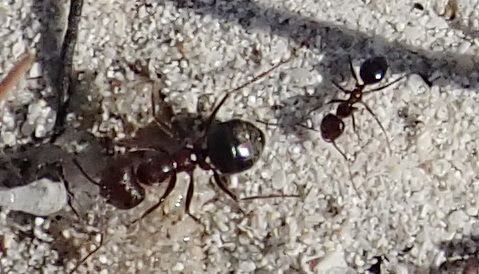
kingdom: Animalia
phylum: Arthropoda
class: Insecta
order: Hymenoptera
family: Formicidae
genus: Anoplolepis
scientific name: Anoplolepis steingroeveri
